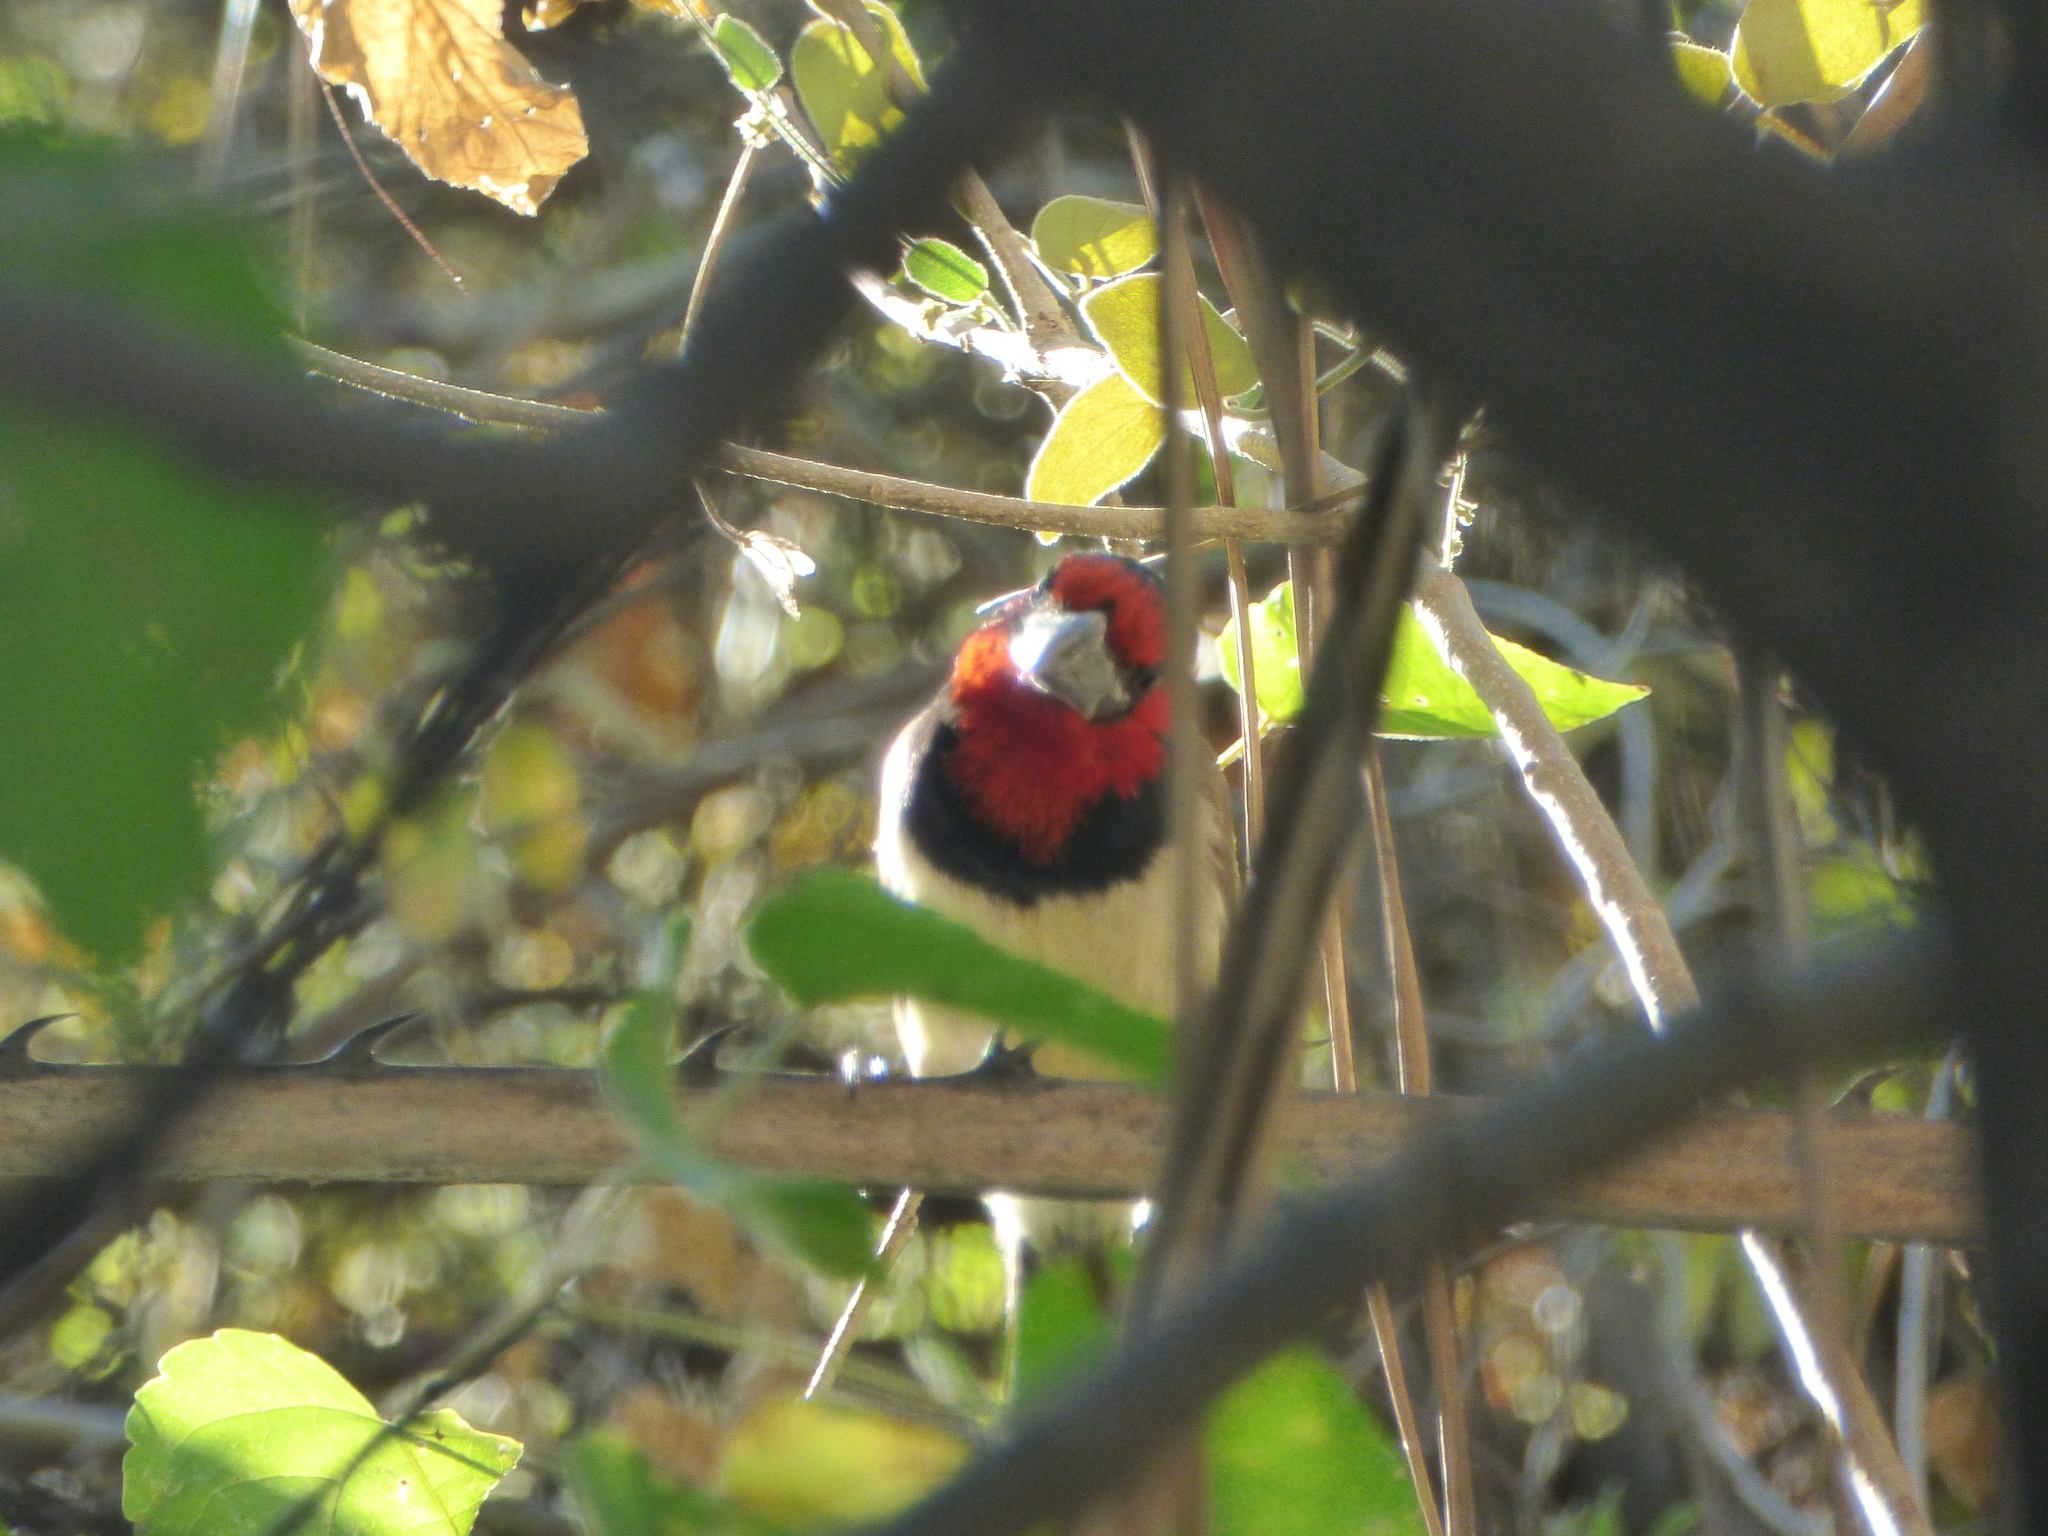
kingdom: Animalia
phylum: Chordata
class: Aves
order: Piciformes
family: Lybiidae
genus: Lybius
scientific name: Lybius torquatus
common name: Black-collared barbet
